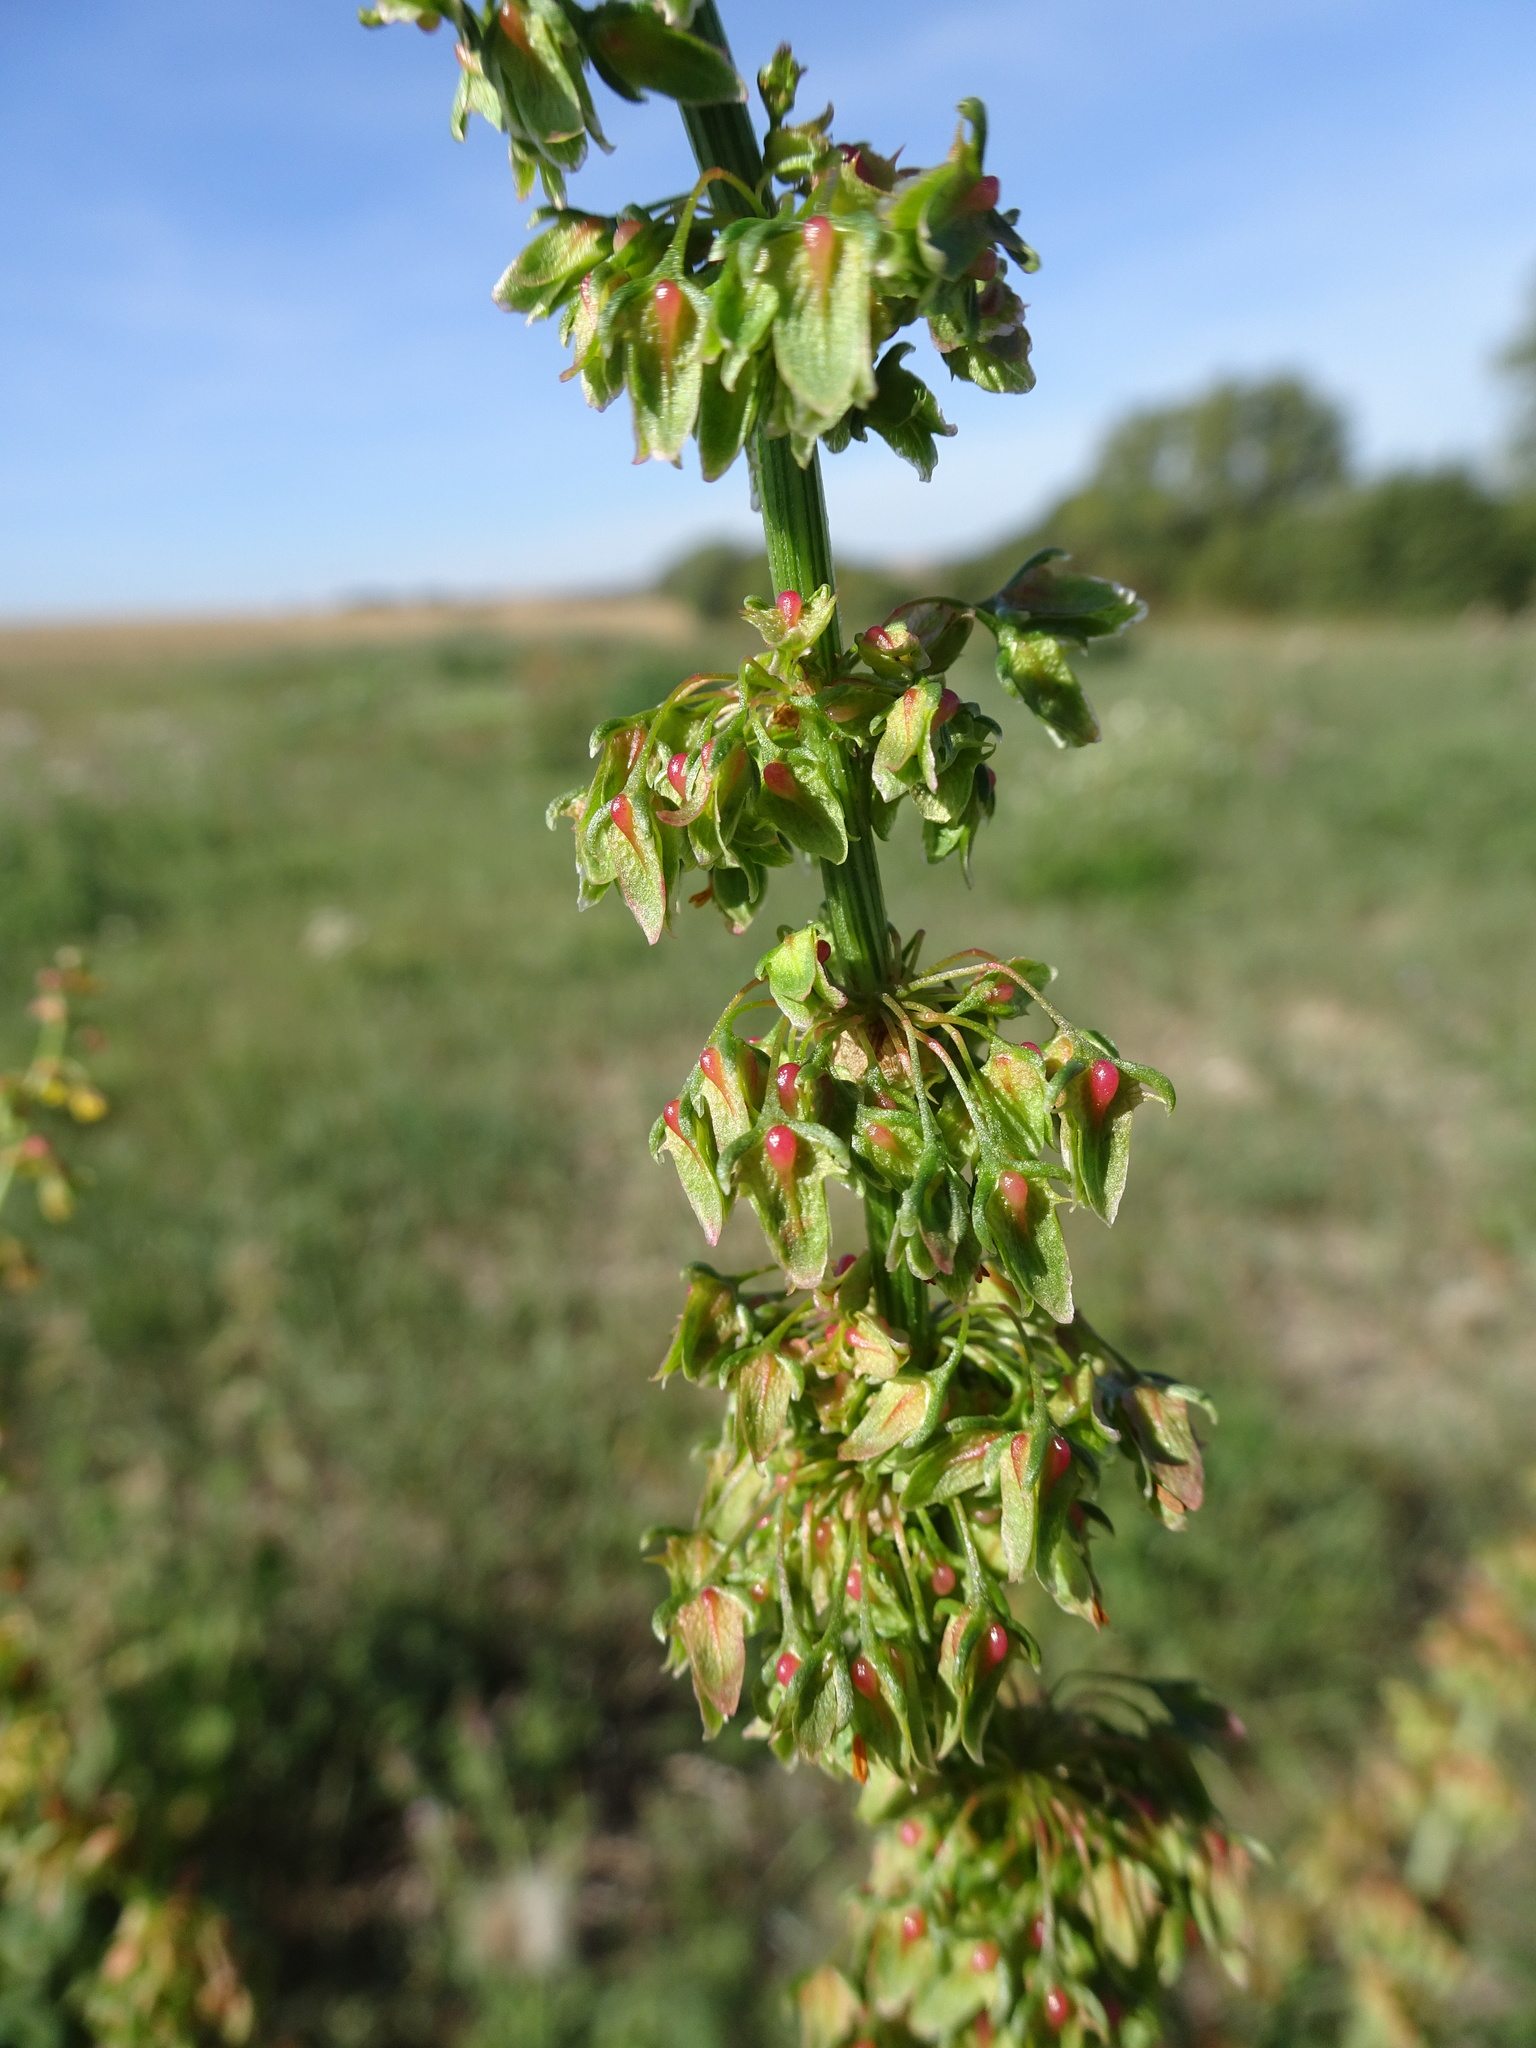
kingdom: Plantae
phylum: Tracheophyta
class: Magnoliopsida
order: Caryophyllales
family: Polygonaceae
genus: Rumex
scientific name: Rumex obtusifolius
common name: Bitter dock
